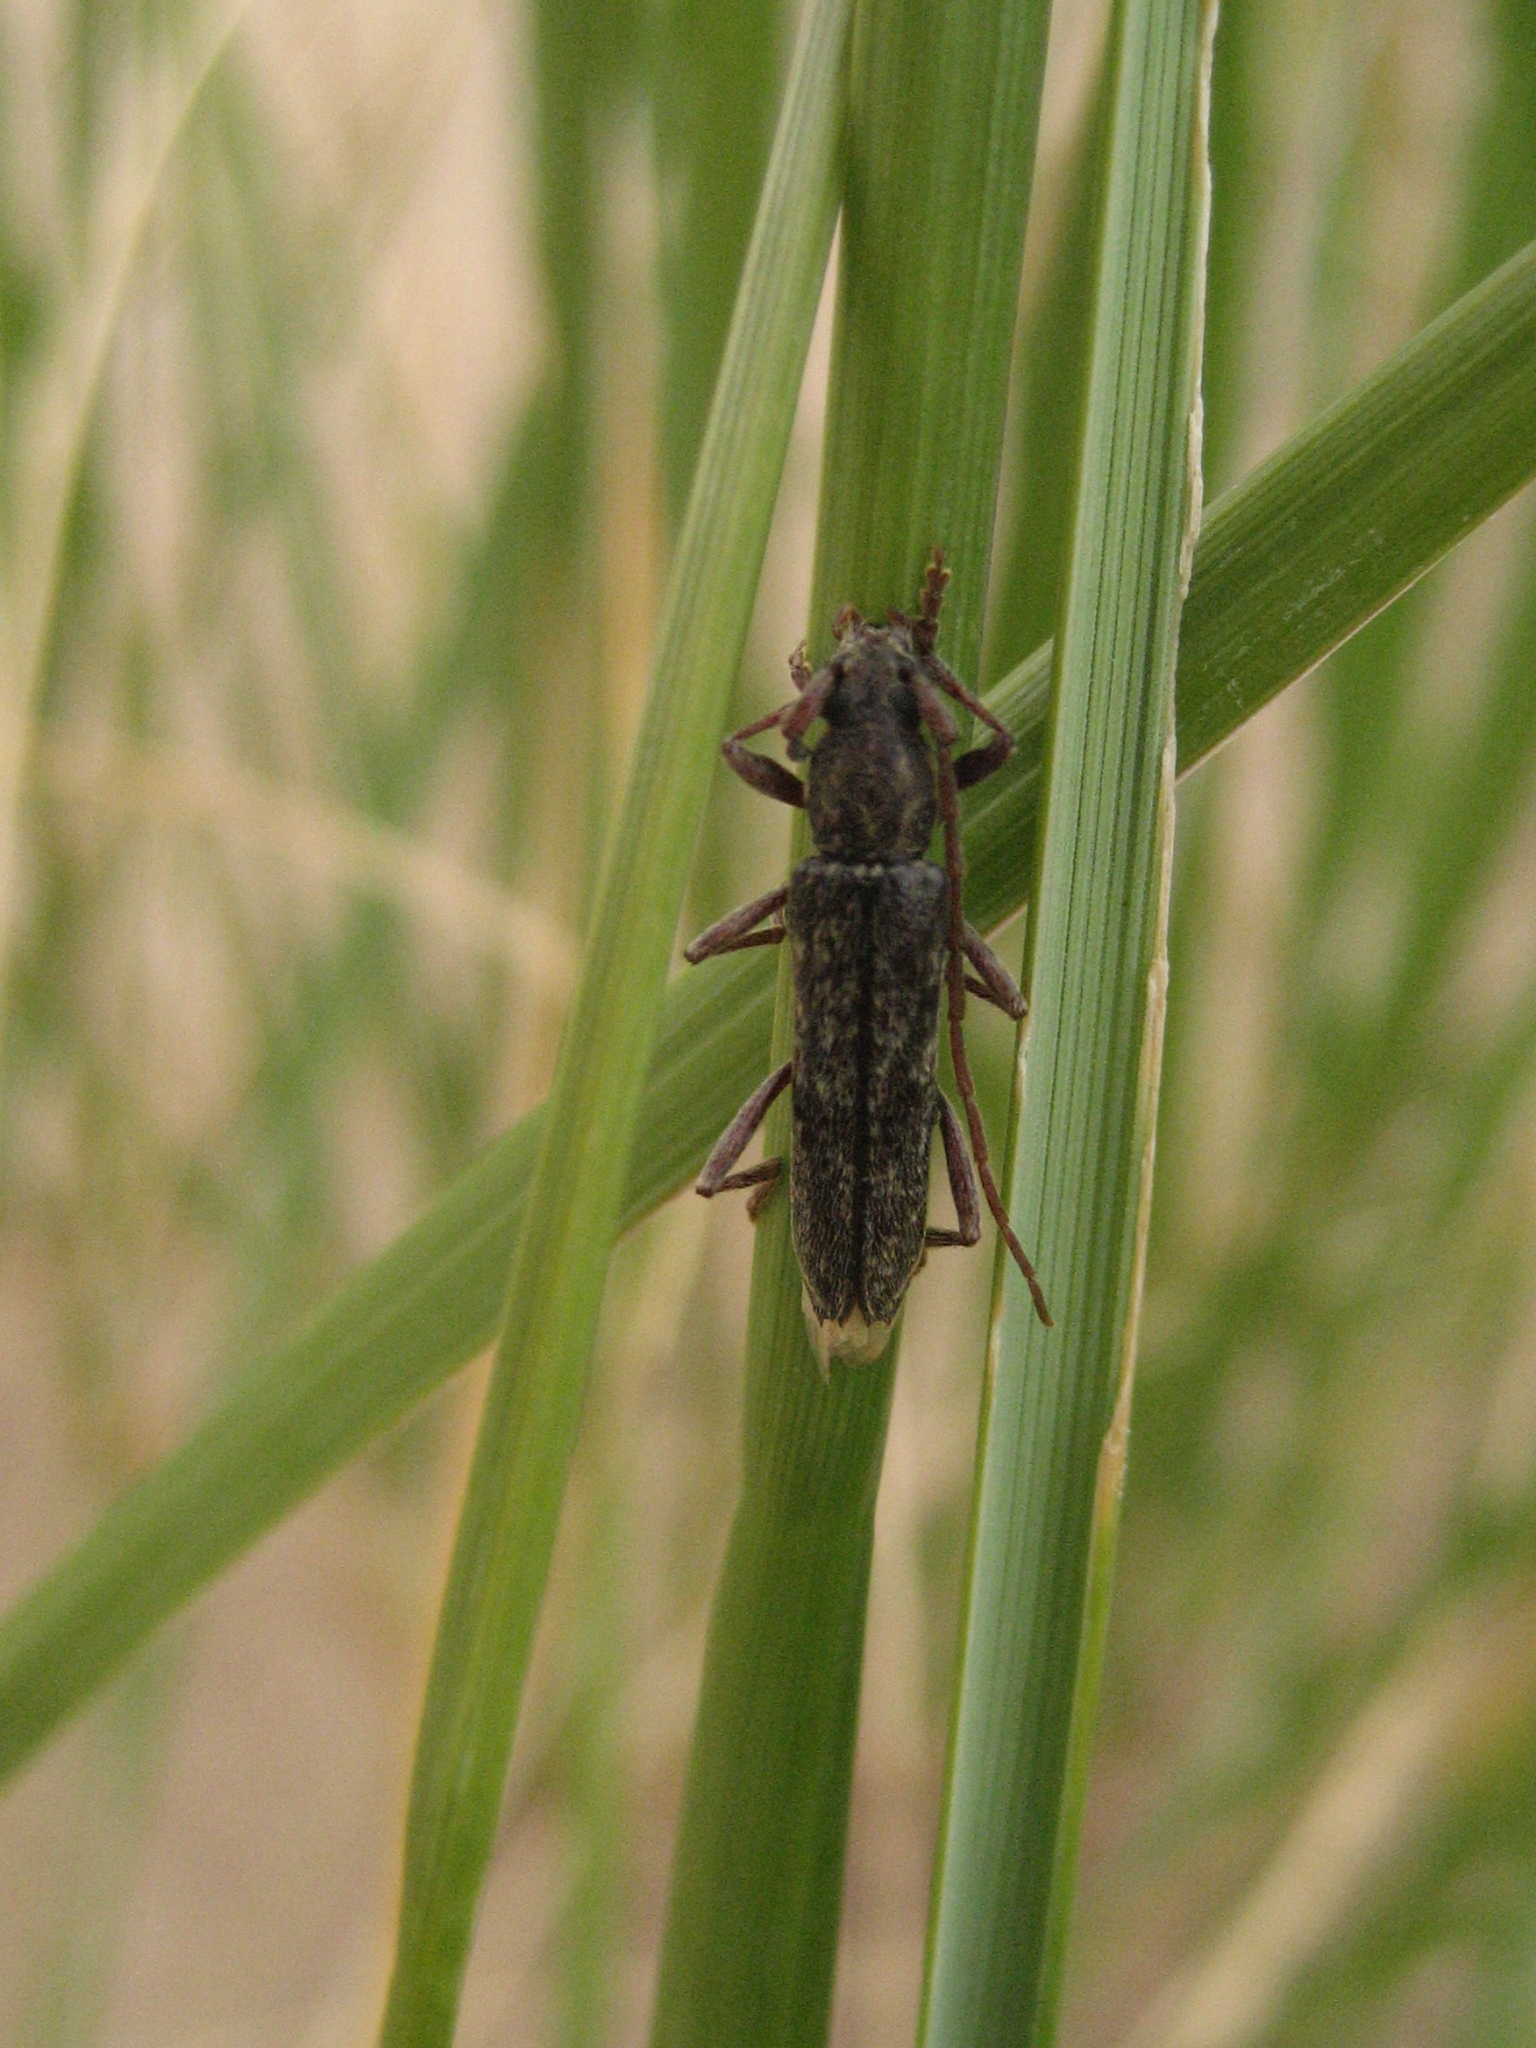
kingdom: Animalia
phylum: Arthropoda
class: Insecta
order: Coleoptera
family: Cerambycidae
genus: Anelaphus
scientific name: Anelaphus villosus
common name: Twig pruner
